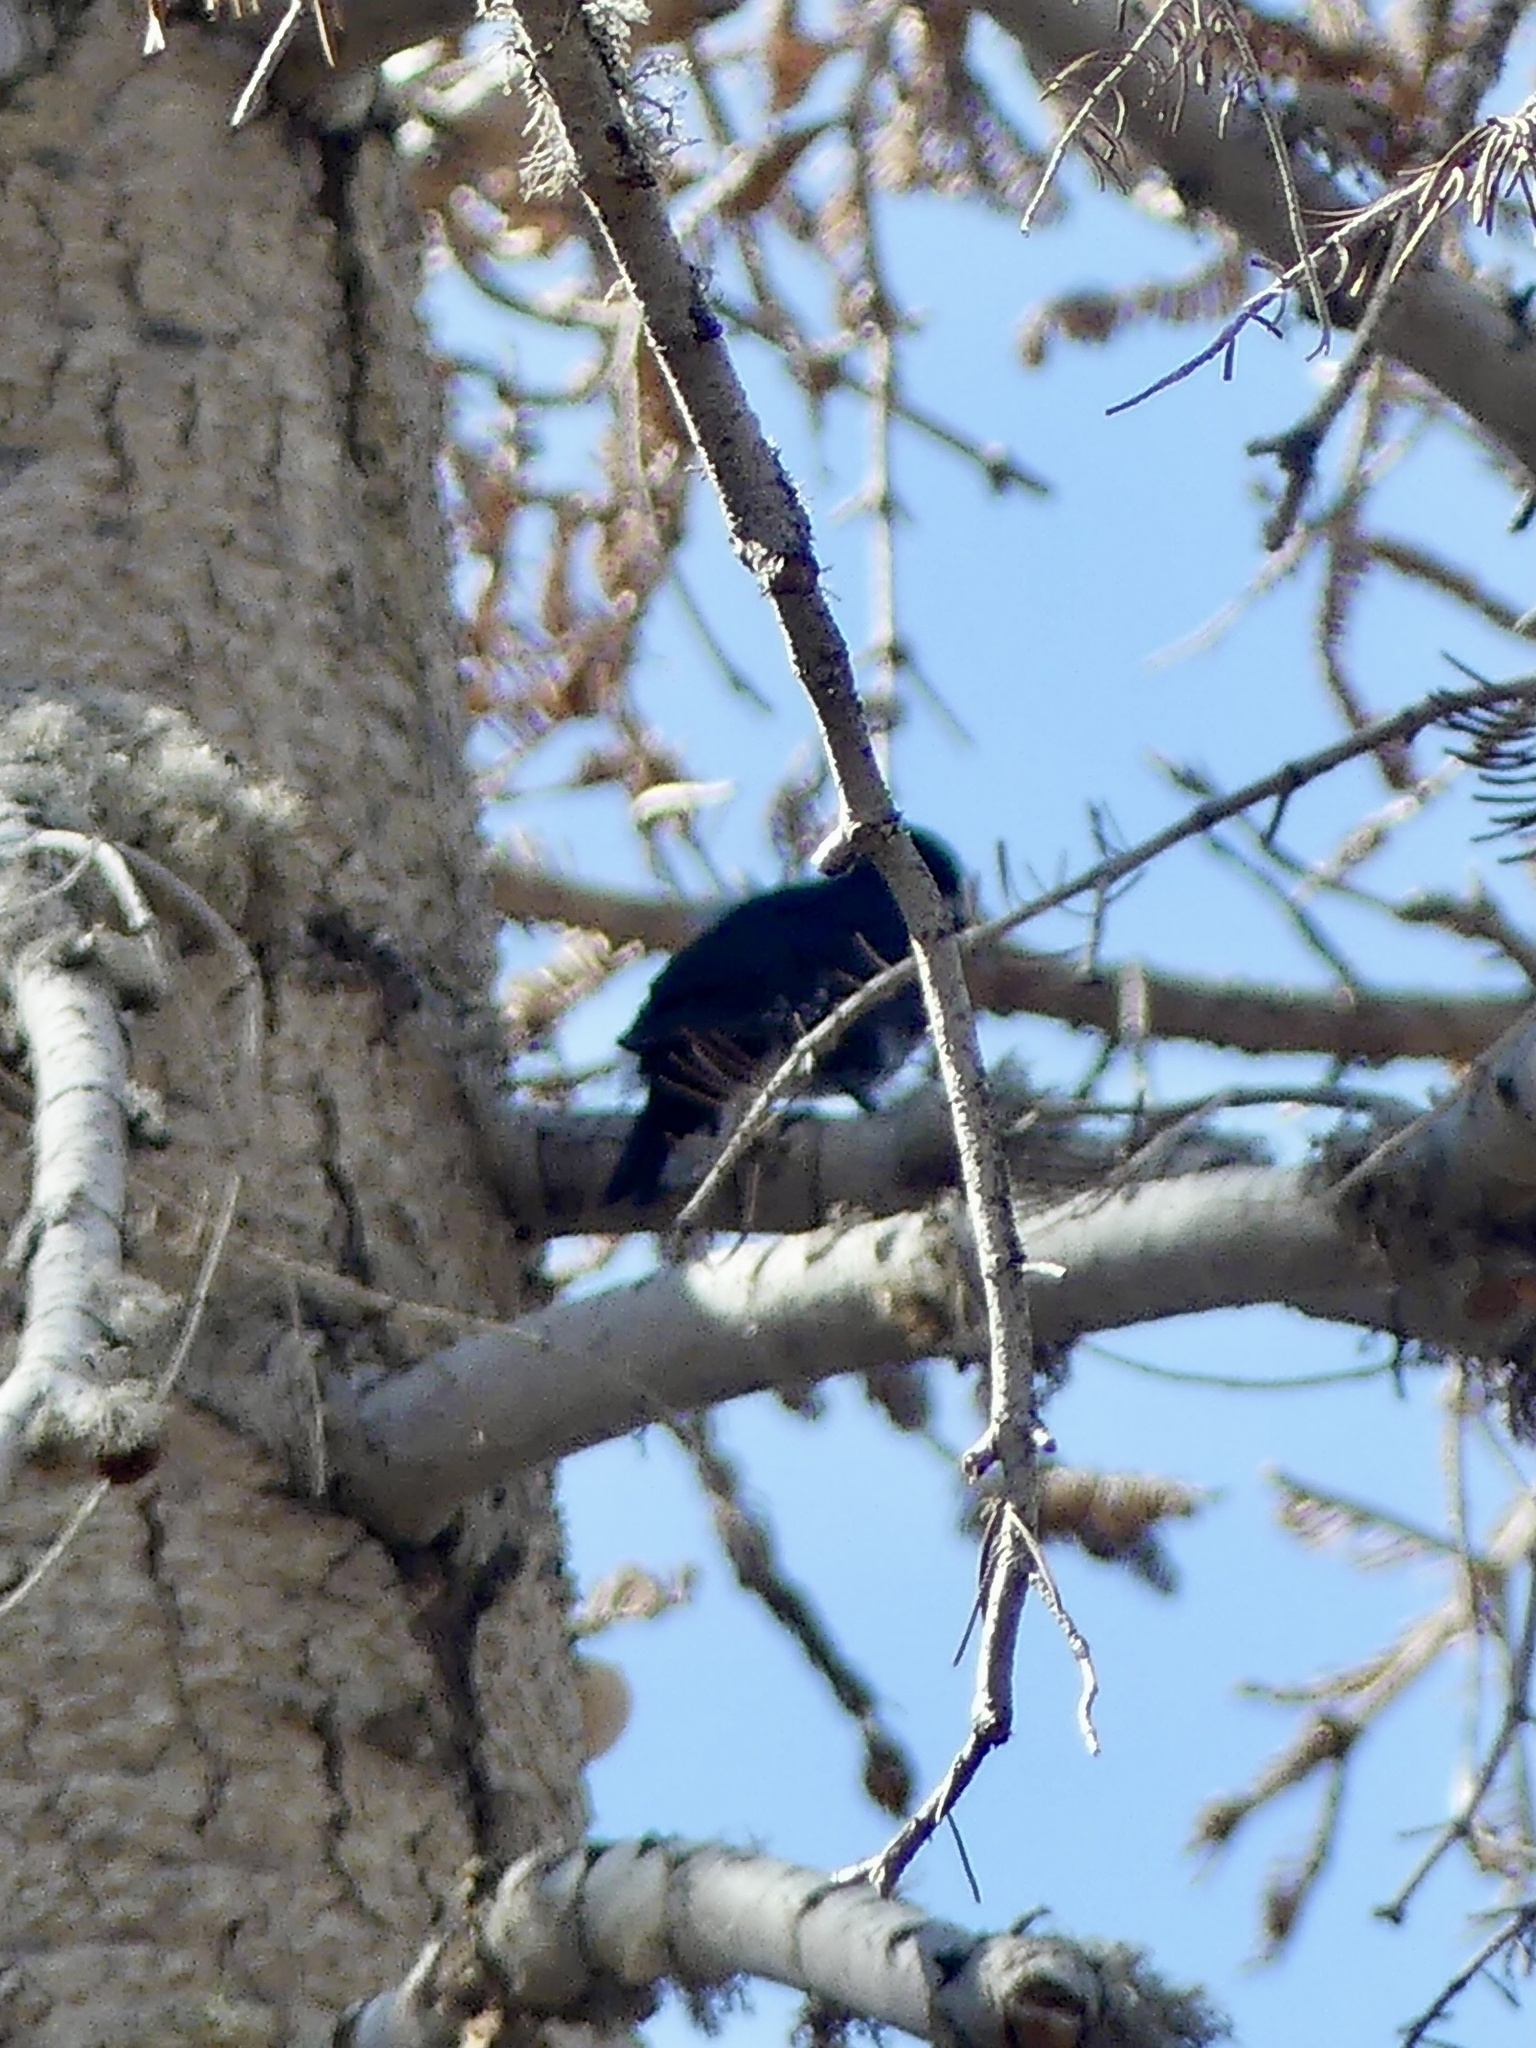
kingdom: Animalia
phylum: Chordata
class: Aves
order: Piciformes
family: Picidae
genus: Picoides
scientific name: Picoides arcticus
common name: Black-backed woodpecker
